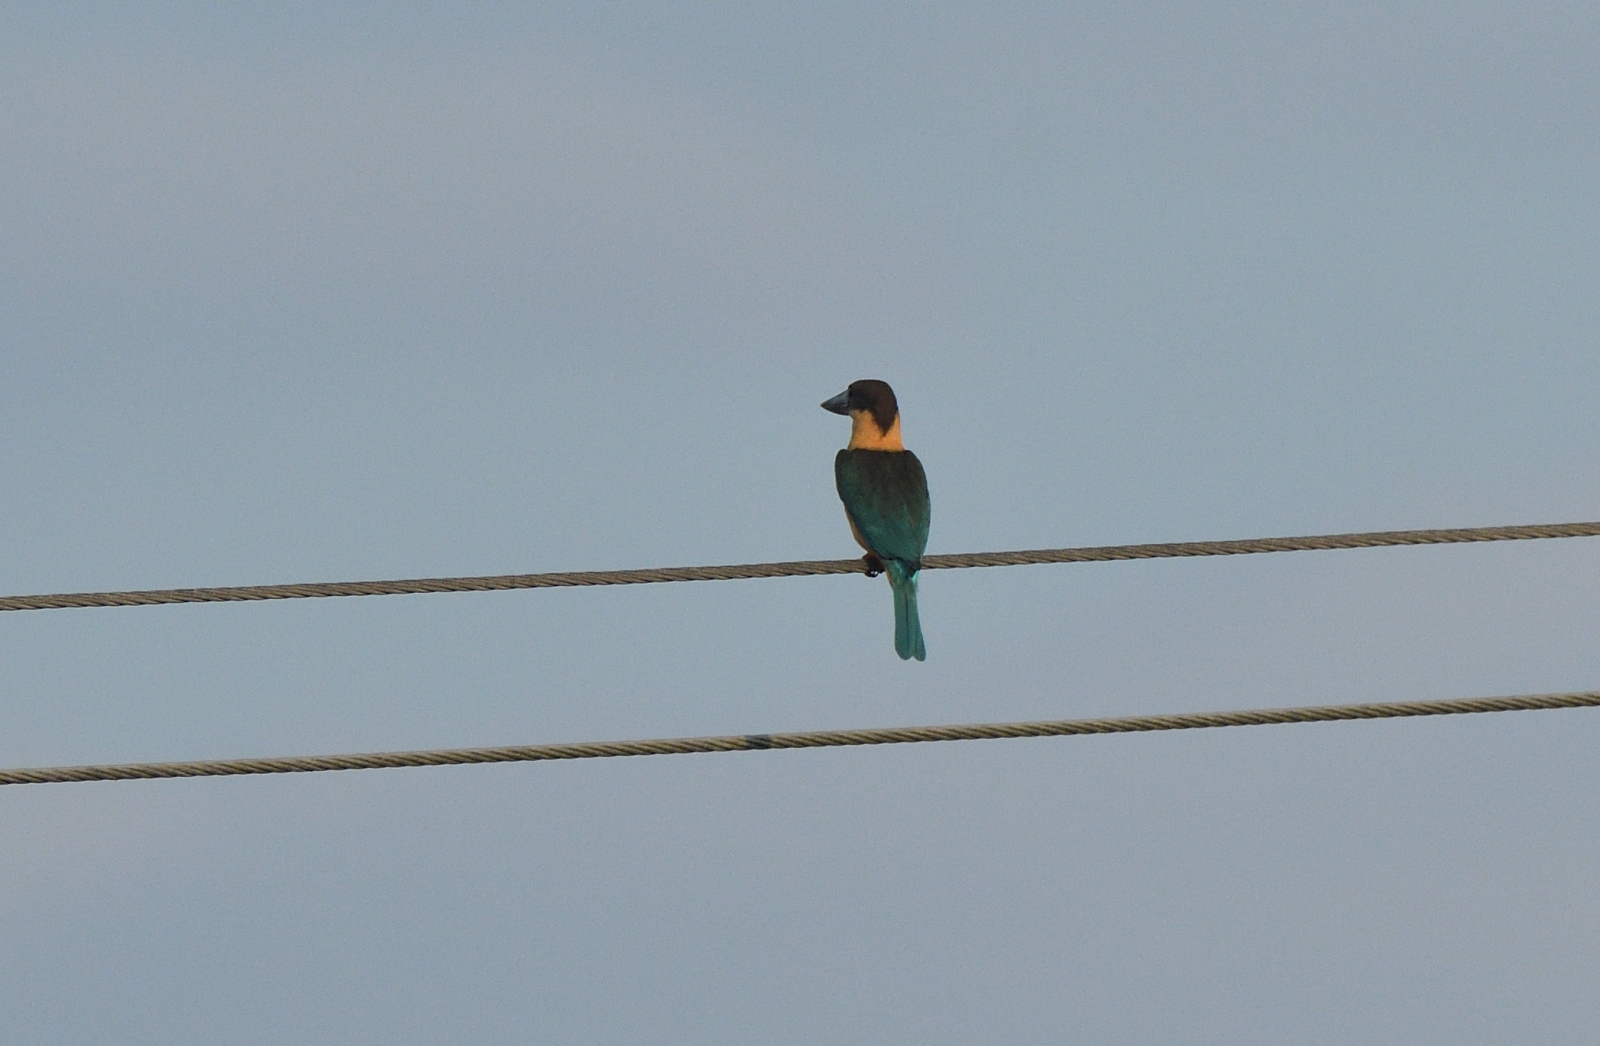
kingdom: Animalia
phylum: Chordata
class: Aves
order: Coraciiformes
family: Alcedinidae
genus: Pelargopsis
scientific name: Pelargopsis capensis
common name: Stork-billed kingfisher
